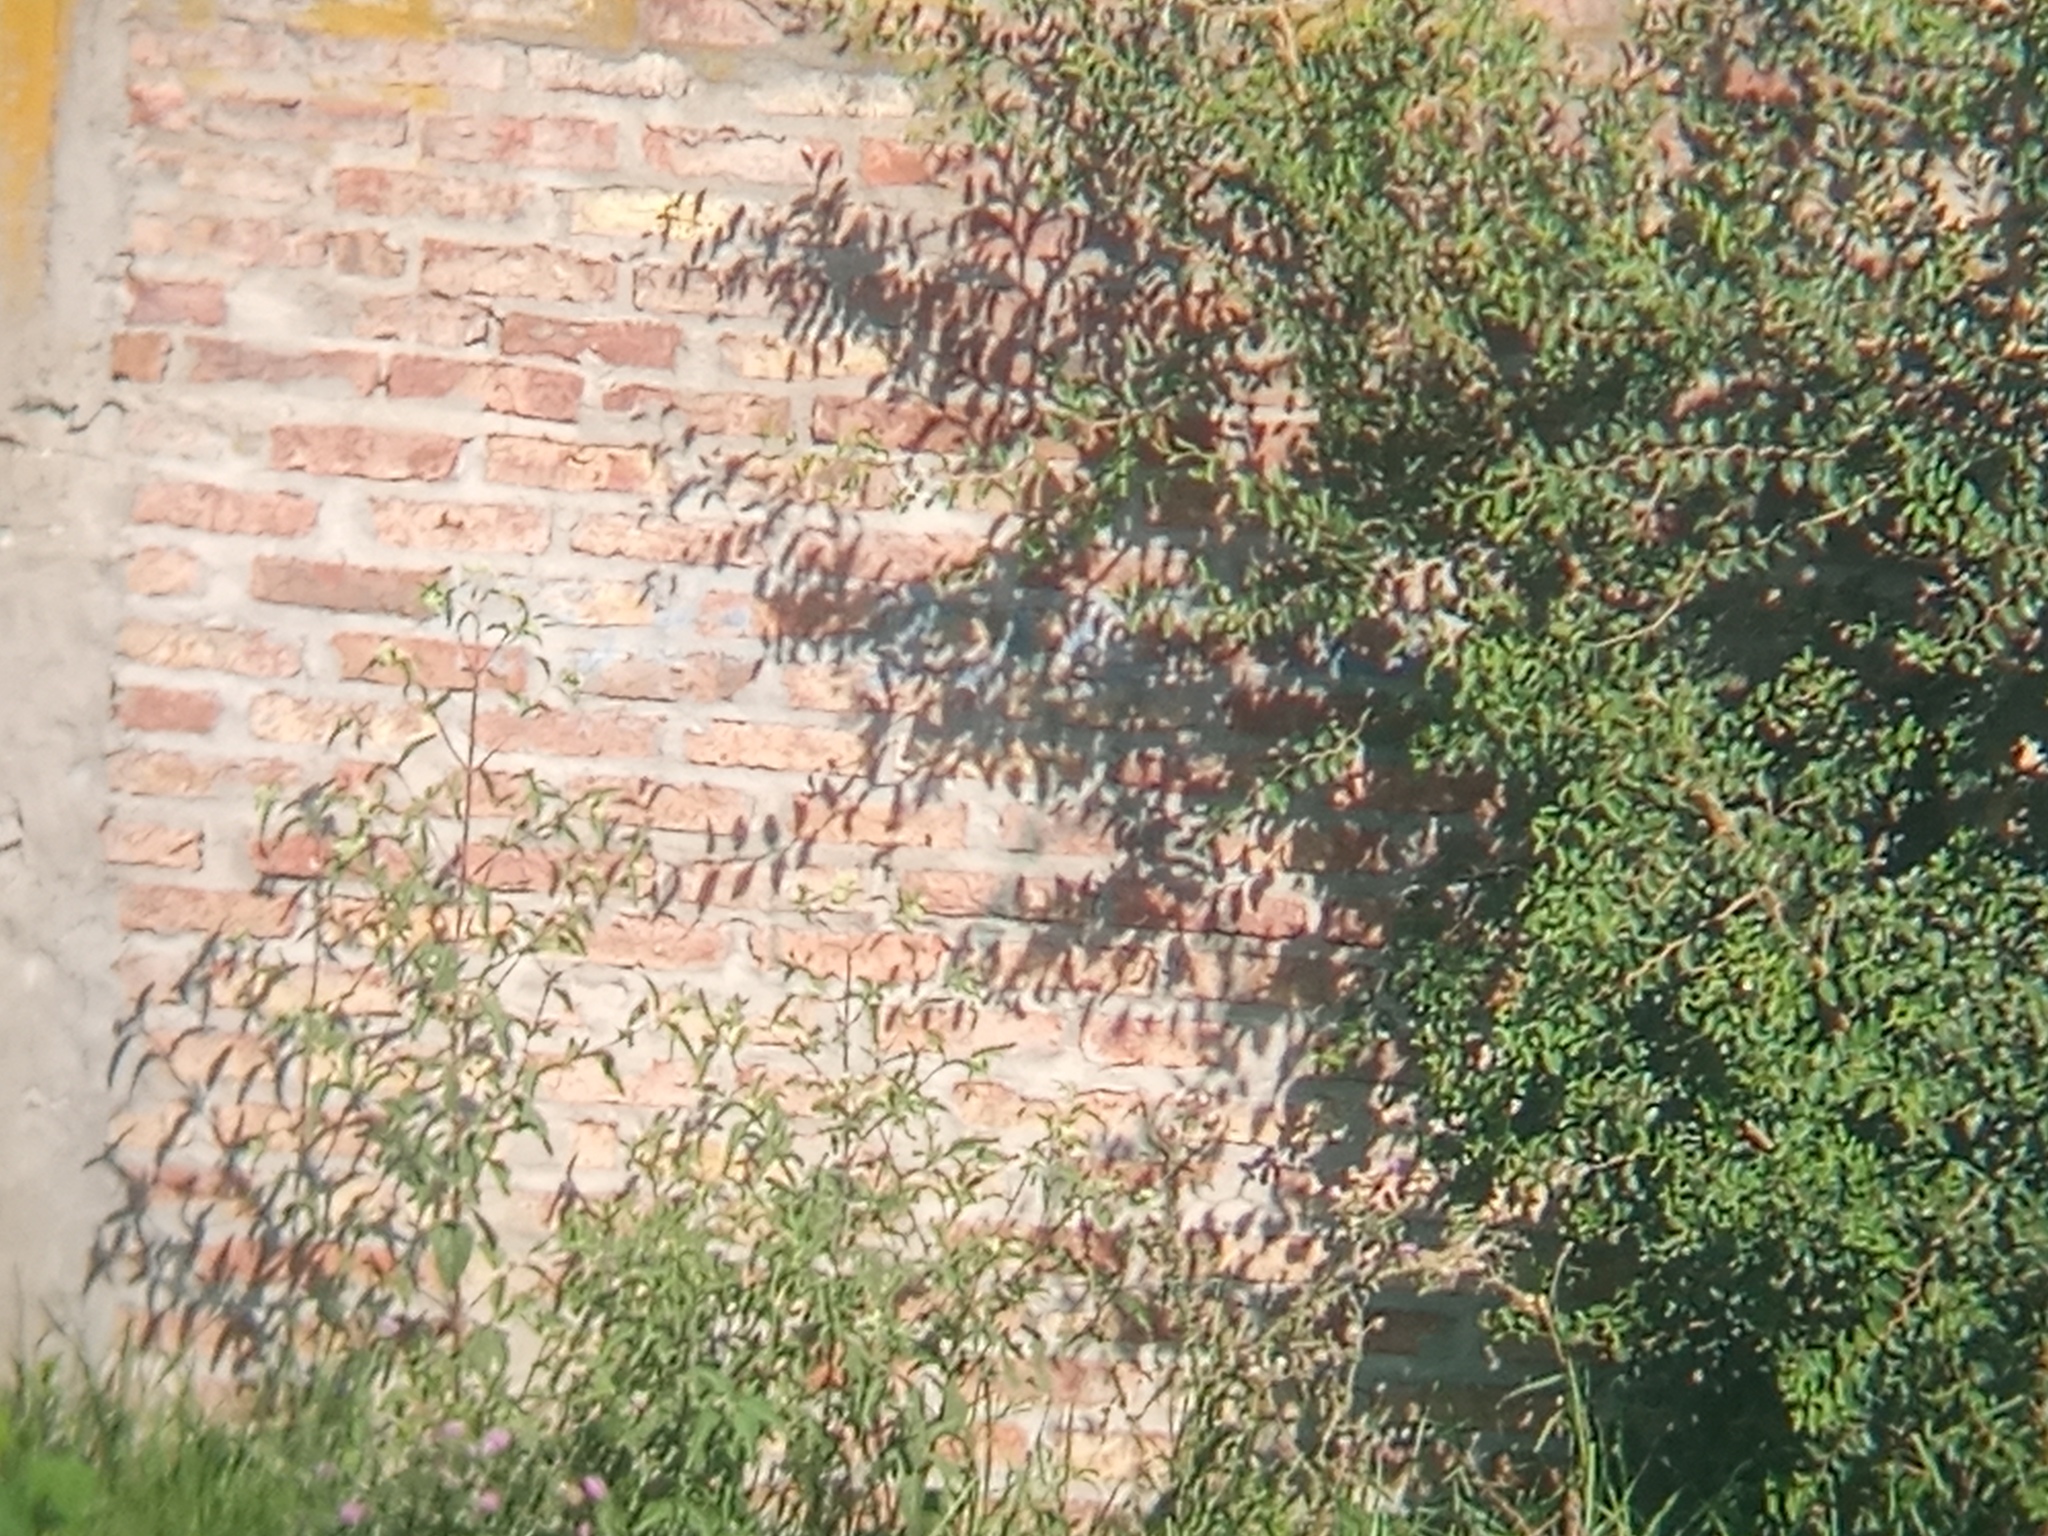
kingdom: Plantae
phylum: Tracheophyta
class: Magnoliopsida
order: Rosales
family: Cannabaceae
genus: Celtis
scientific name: Celtis tala
